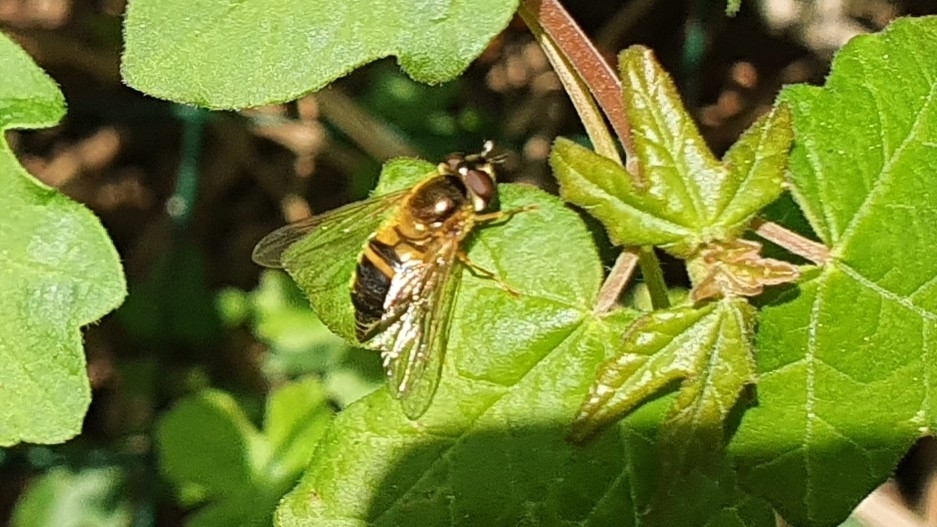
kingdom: Animalia
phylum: Arthropoda
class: Insecta
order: Diptera
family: Syrphidae
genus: Epistrophe
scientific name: Epistrophe eligans
